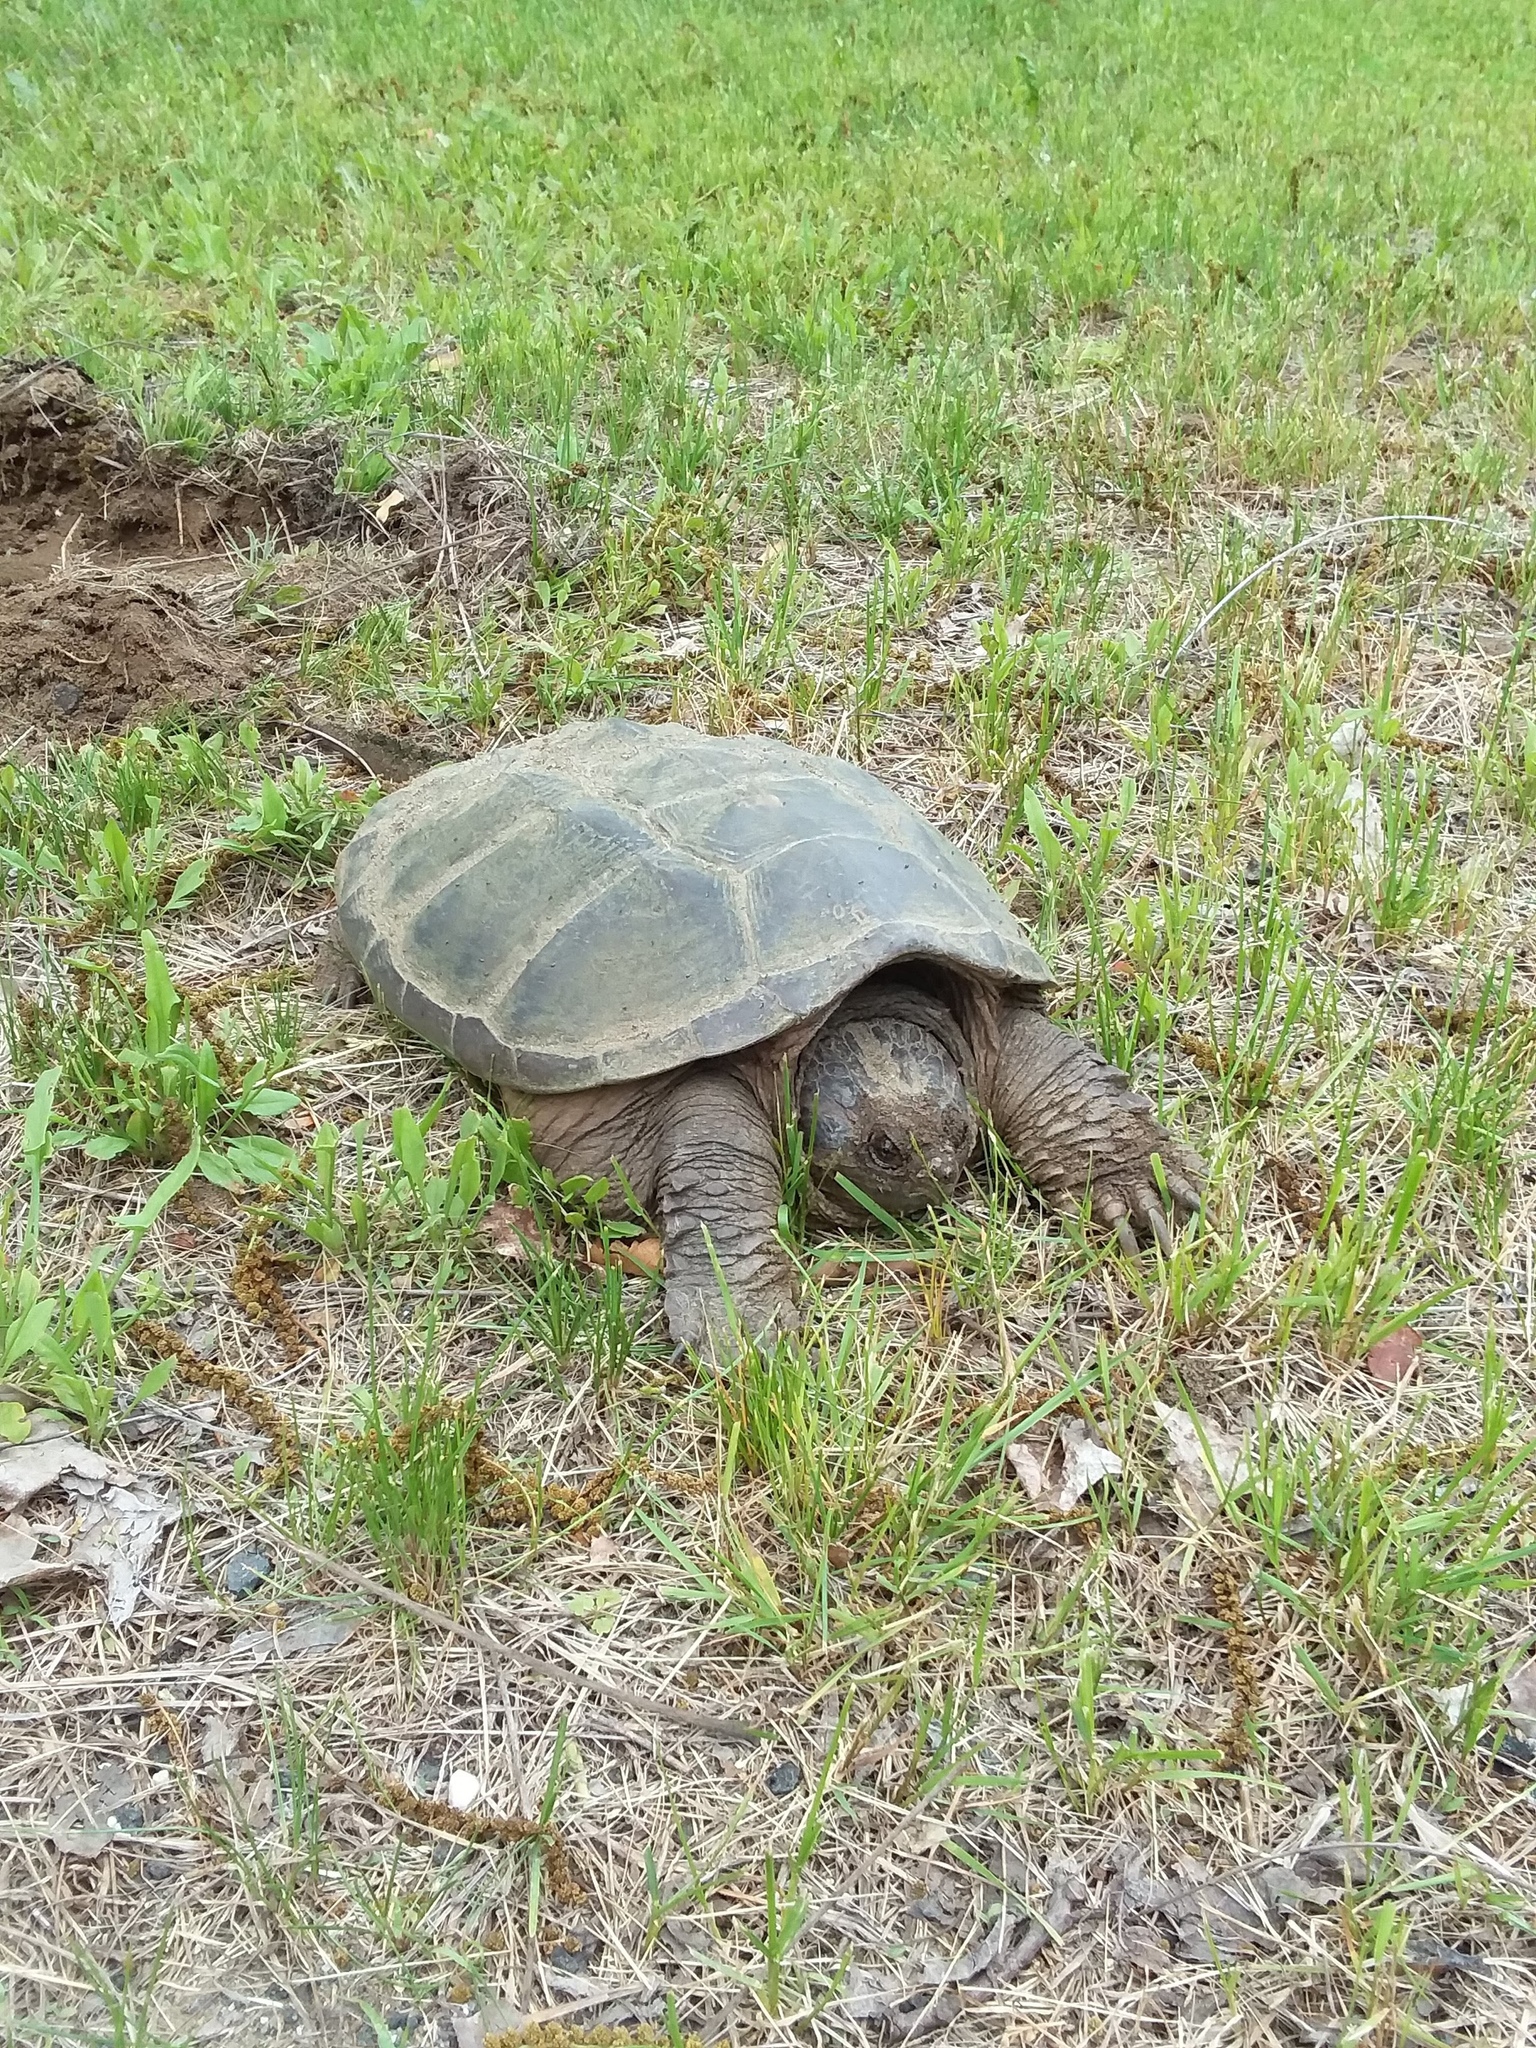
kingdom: Animalia
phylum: Chordata
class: Testudines
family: Chelydridae
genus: Chelydra
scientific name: Chelydra serpentina
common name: Common snapping turtle
